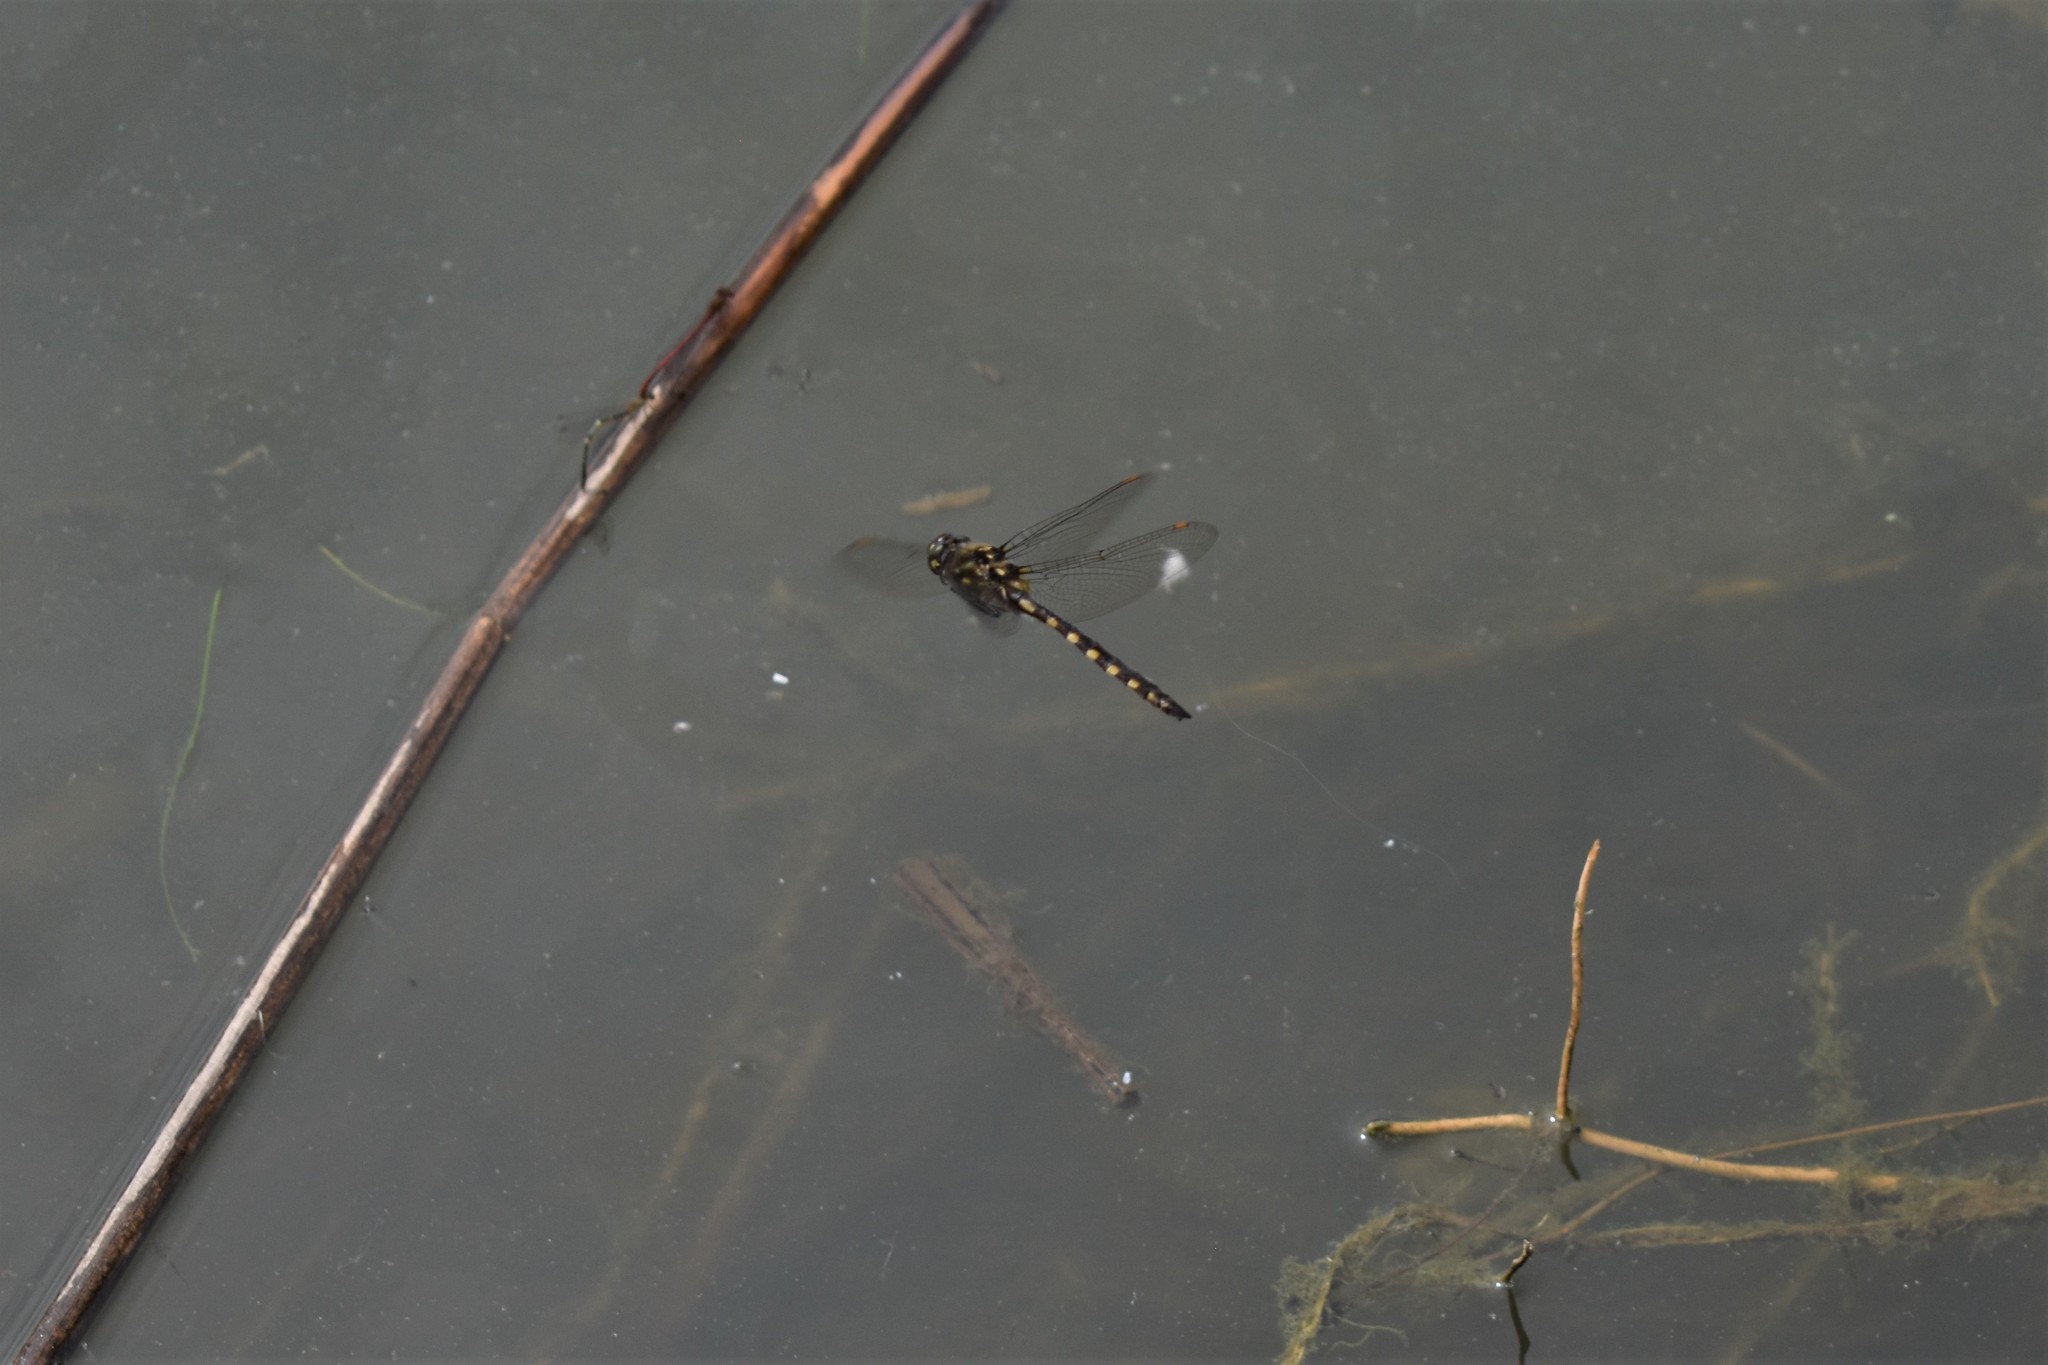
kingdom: Animalia
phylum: Arthropoda
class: Insecta
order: Odonata
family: Corduliidae
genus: Procordulia
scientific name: Procordulia grayi
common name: Yellow spotted dragonfly
